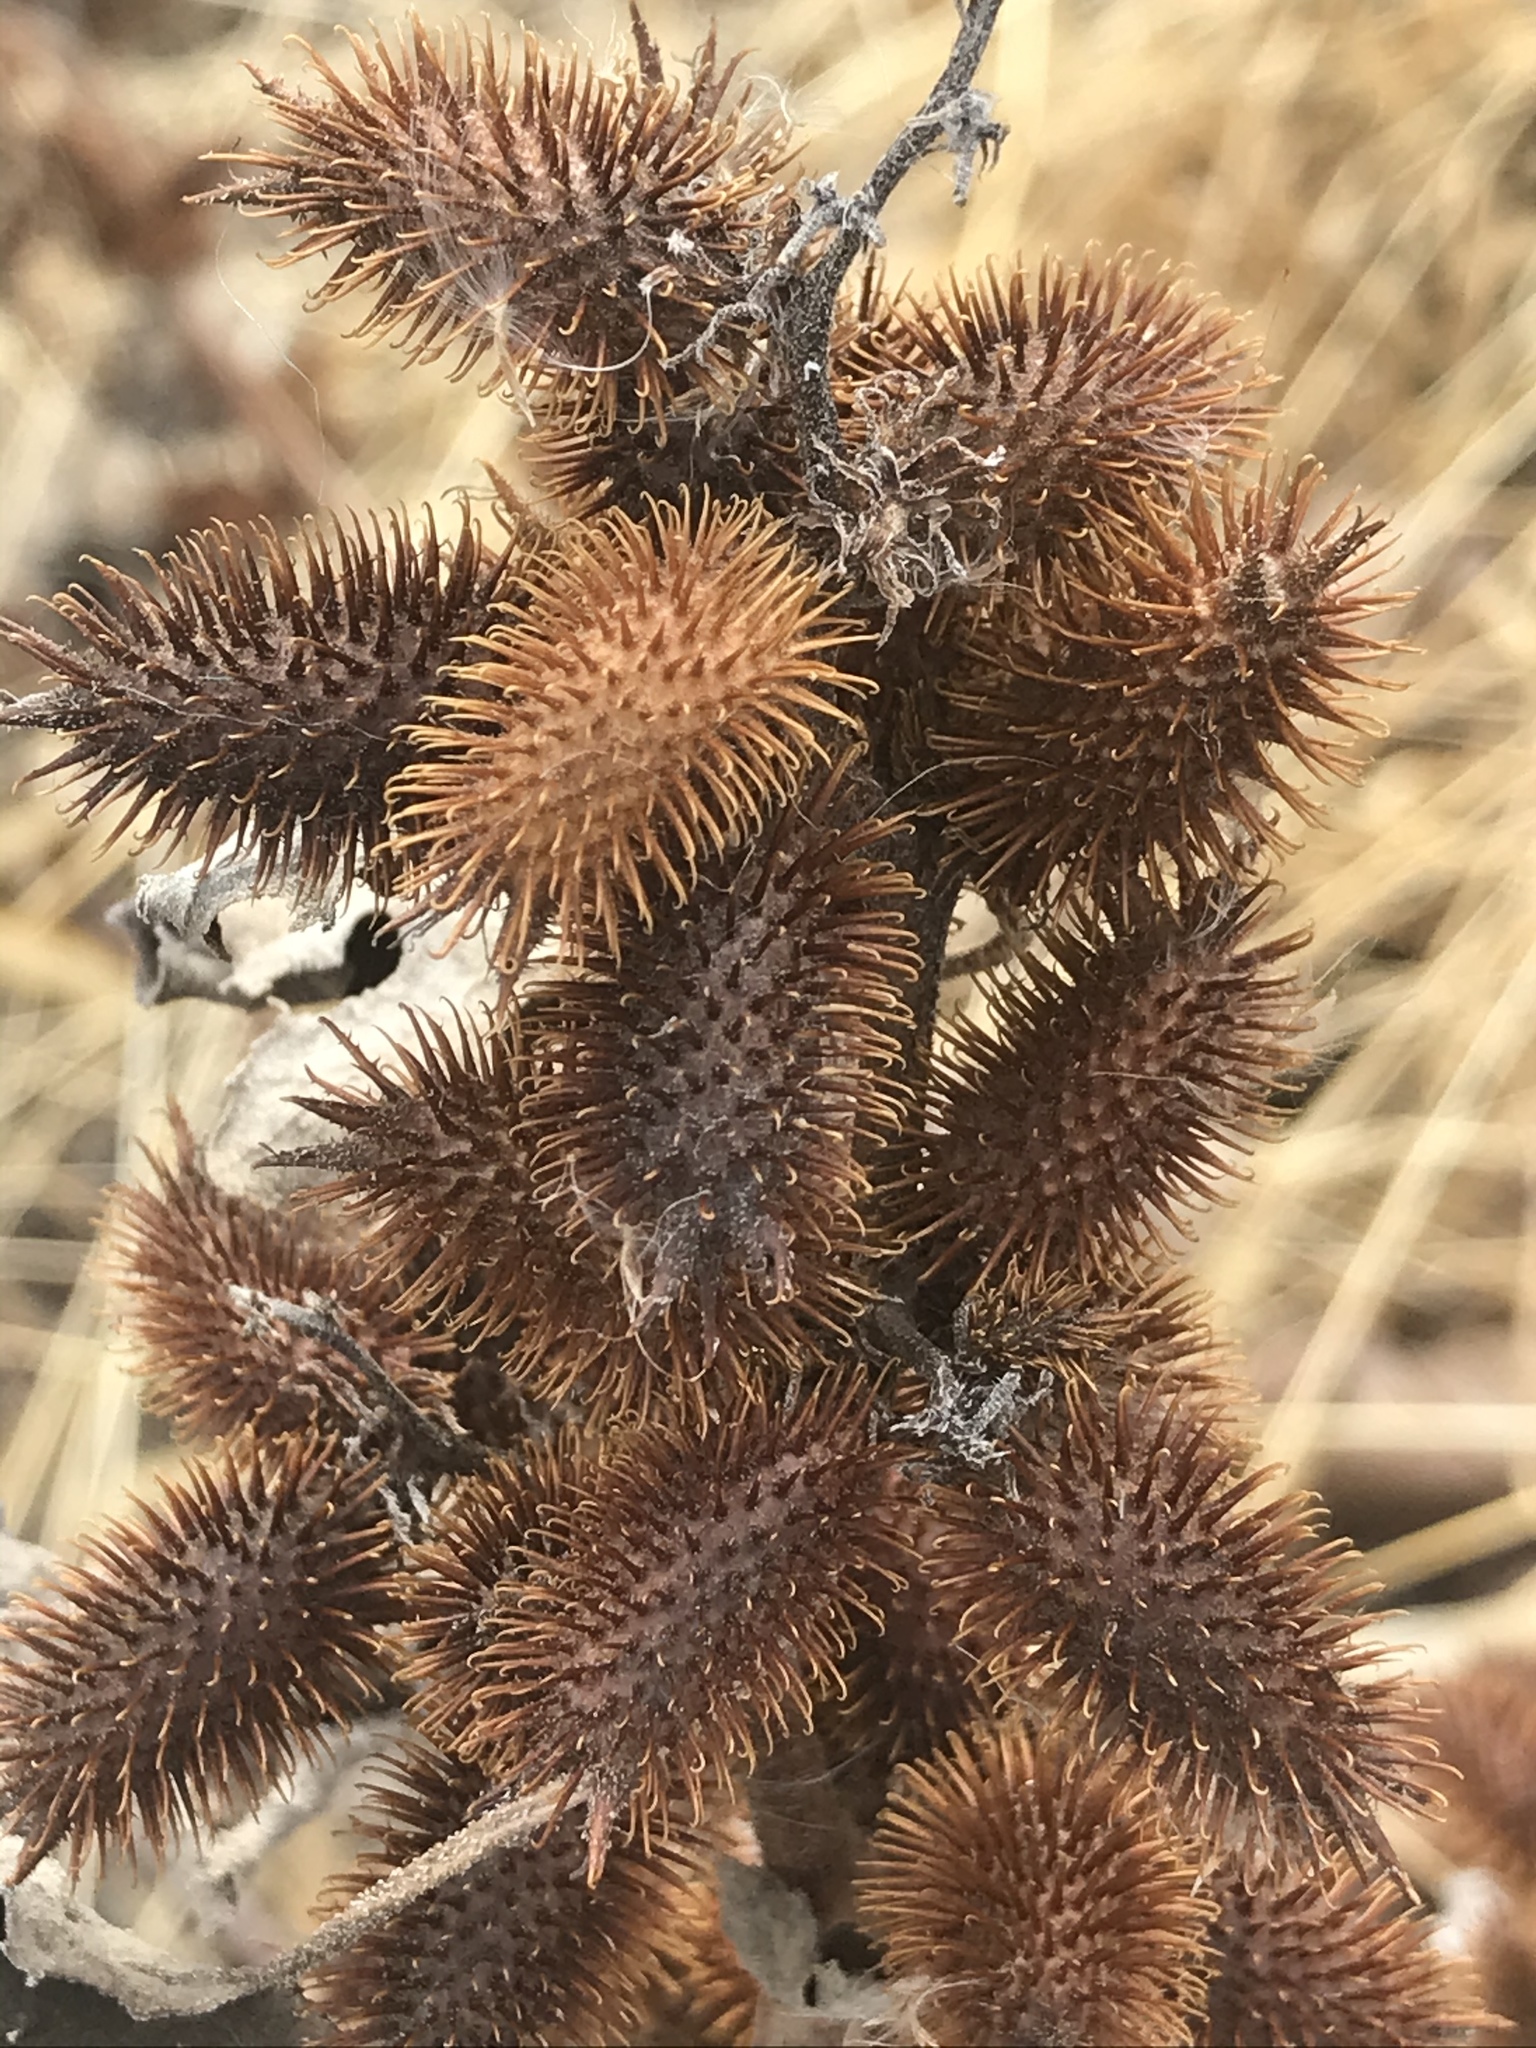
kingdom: Plantae
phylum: Tracheophyta
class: Magnoliopsida
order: Asterales
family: Asteraceae
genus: Xanthium
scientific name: Xanthium strumarium
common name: Rough cocklebur
